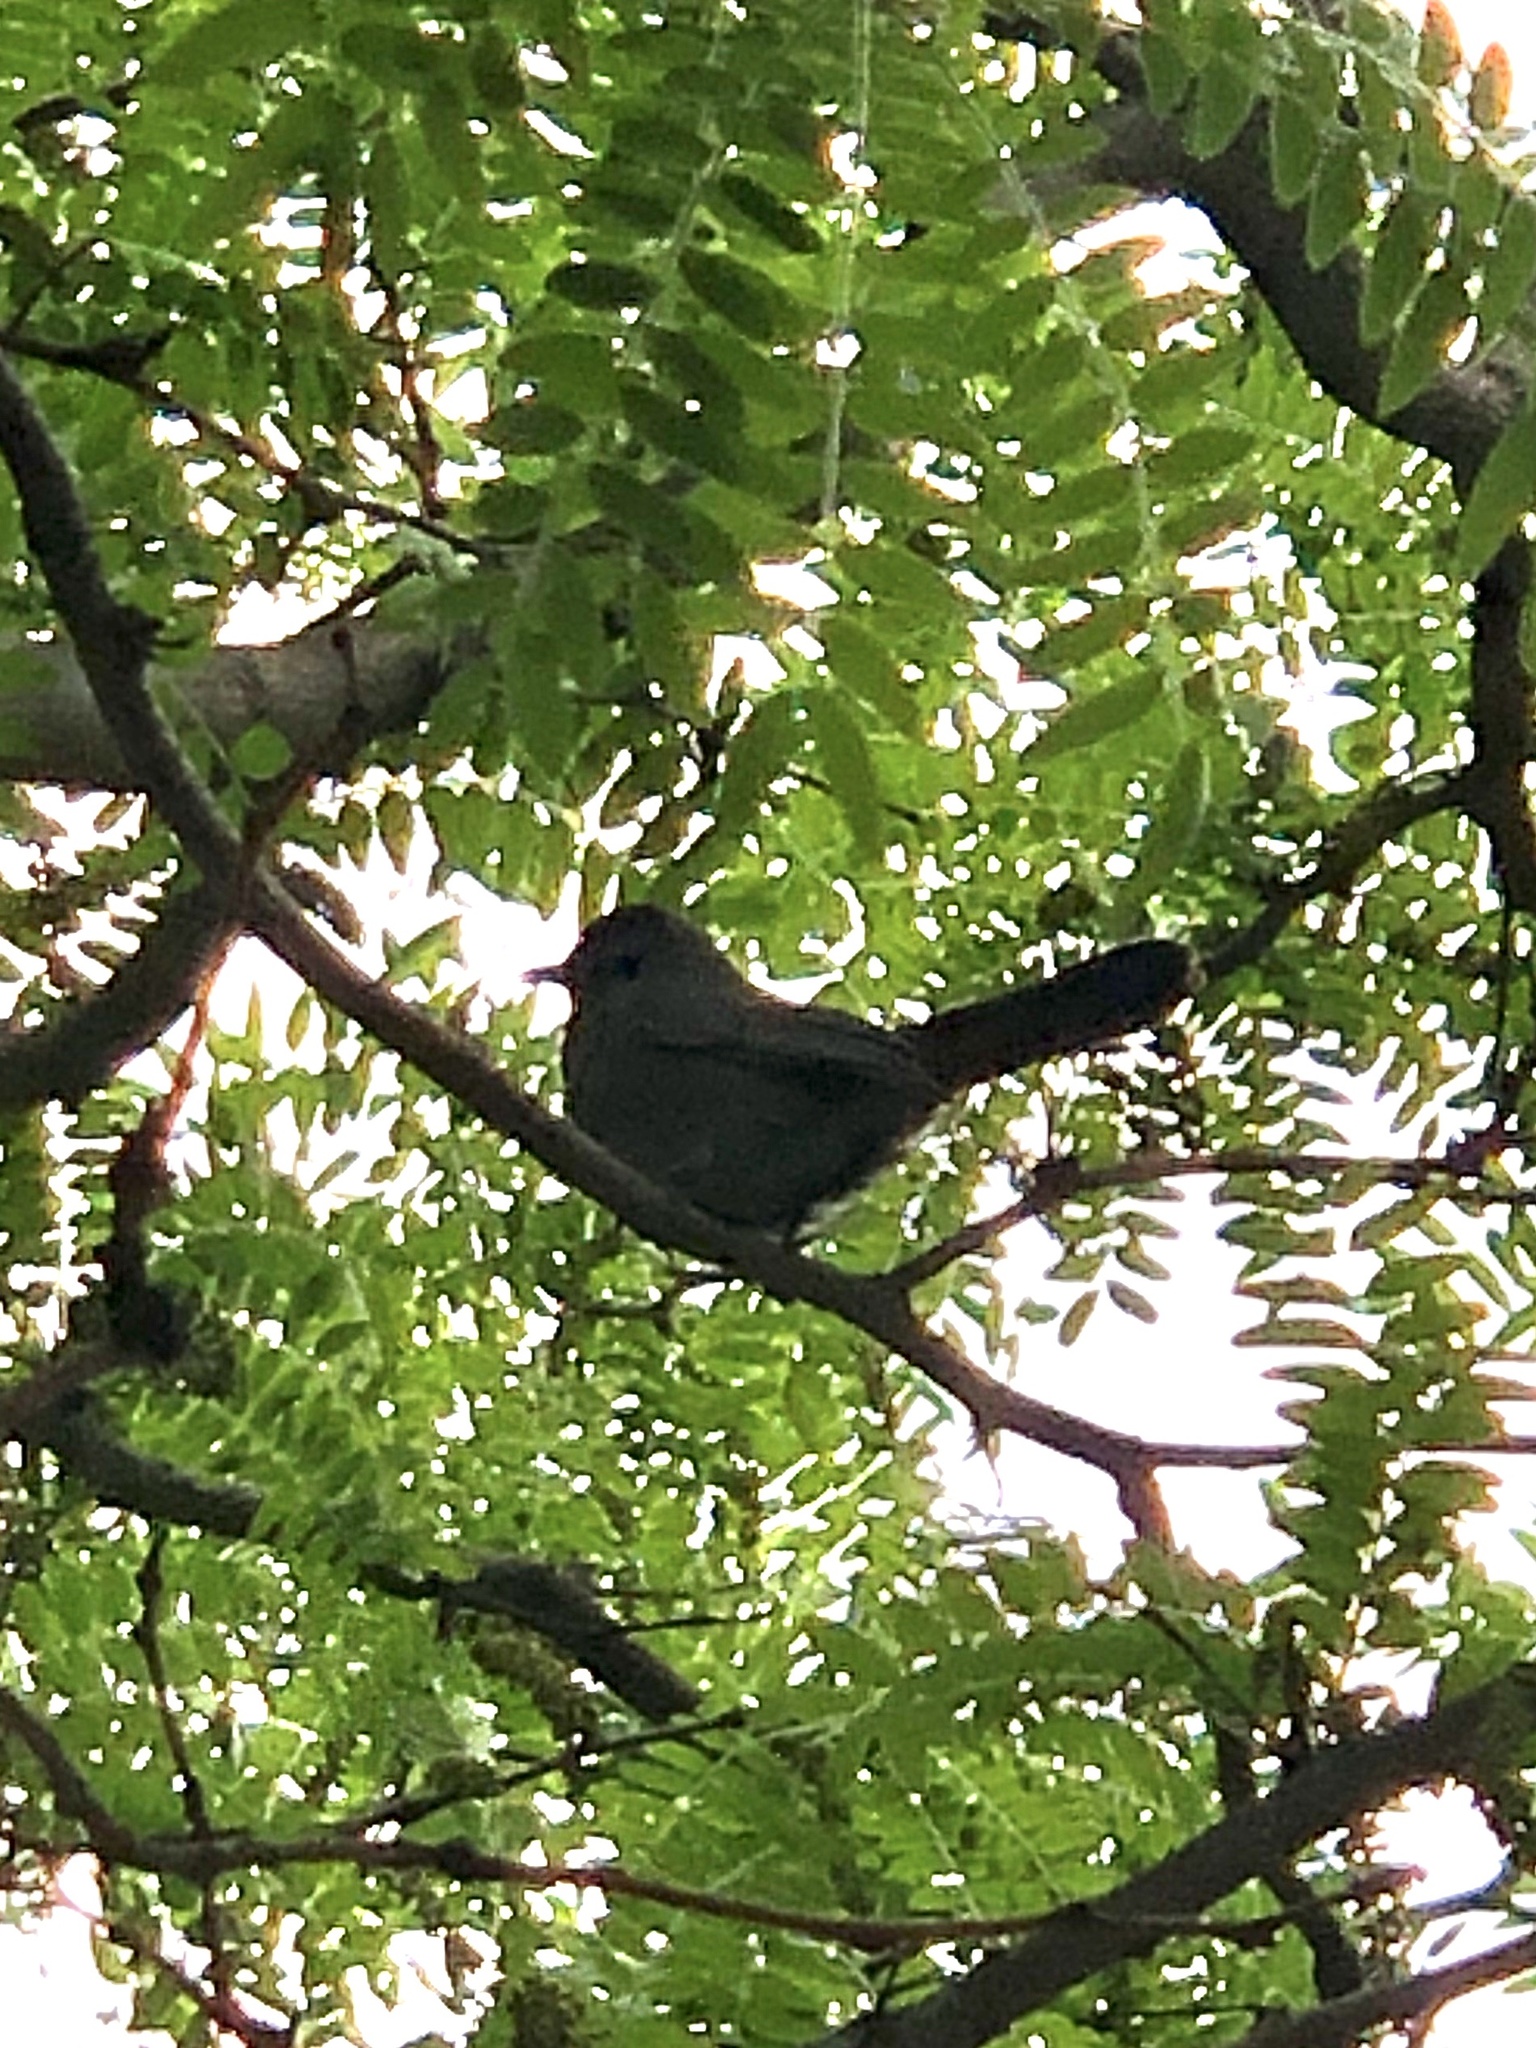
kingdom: Animalia
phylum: Chordata
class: Aves
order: Passeriformes
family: Mimidae
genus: Dumetella
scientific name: Dumetella carolinensis
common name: Gray catbird
